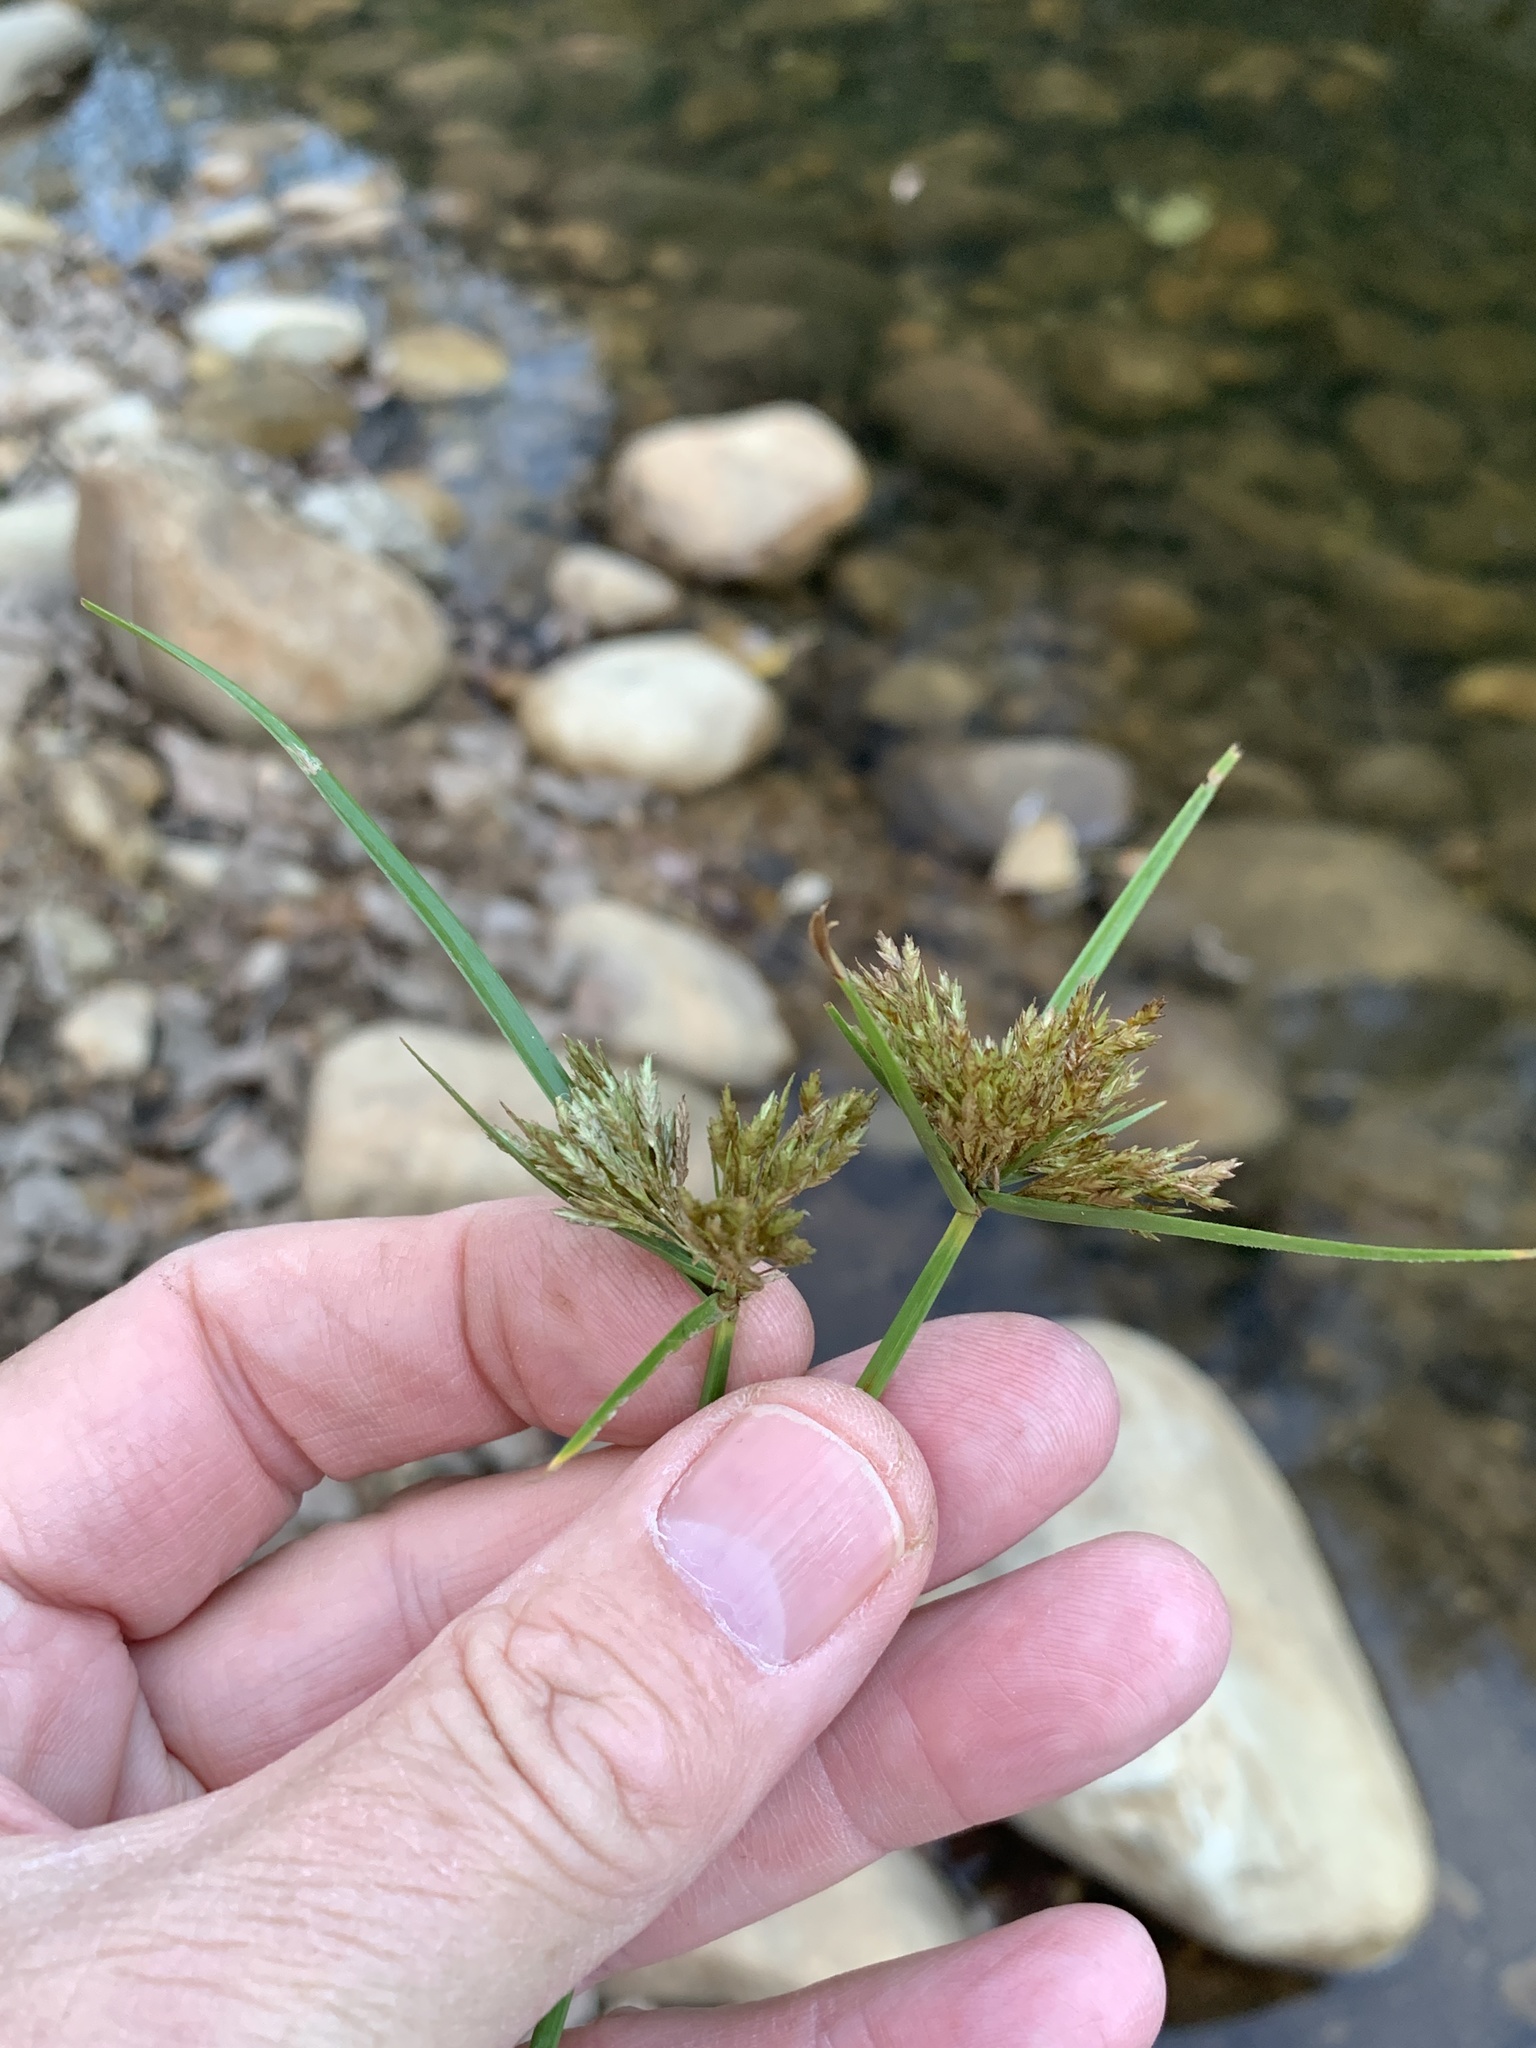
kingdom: Plantae
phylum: Tracheophyta
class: Liliopsida
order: Poales
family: Cyperaceae
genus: Cyperus
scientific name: Cyperus polystachyos
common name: Bunchy flat sedge
